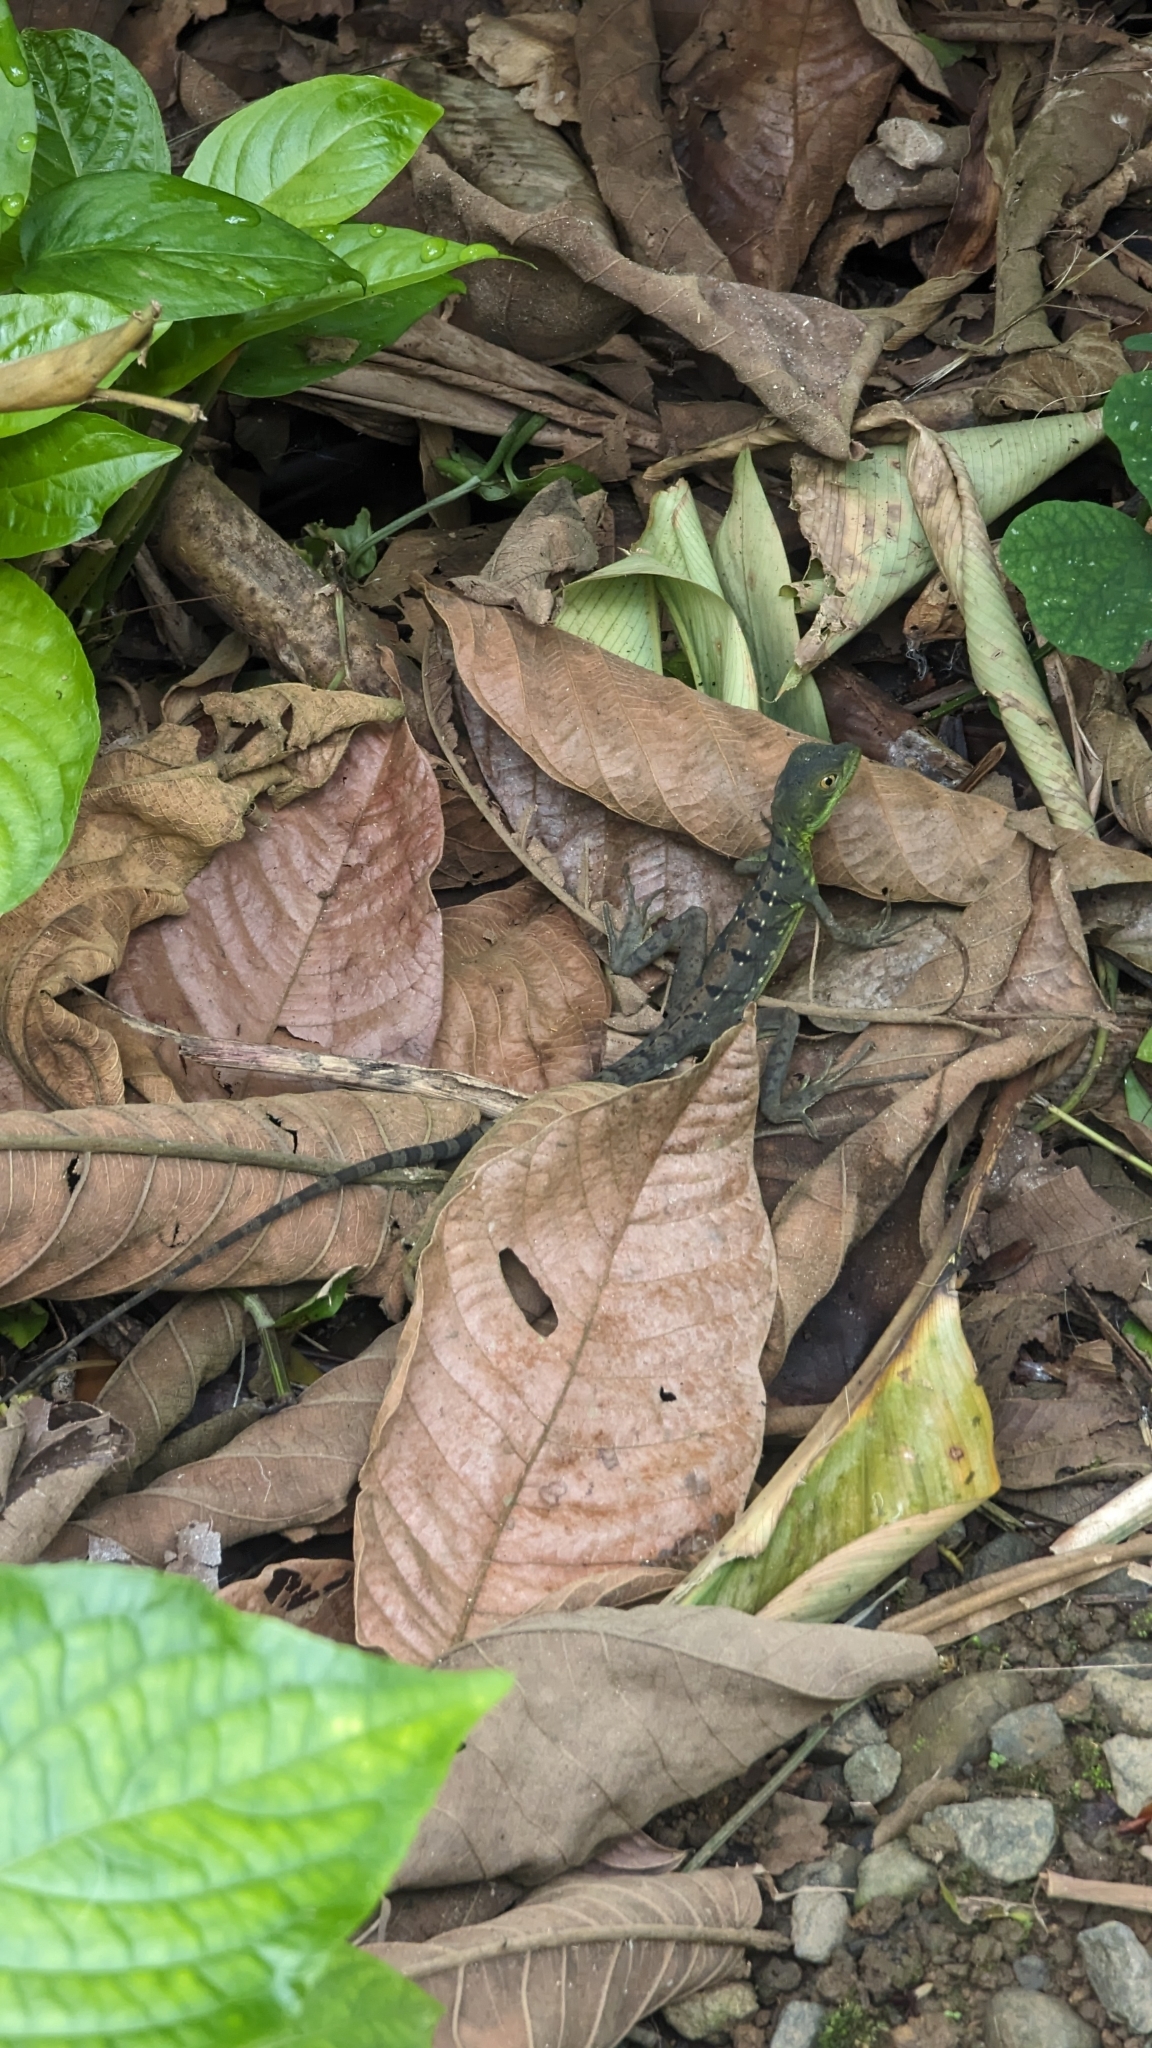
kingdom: Animalia
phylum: Chordata
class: Squamata
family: Corytophanidae
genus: Basiliscus
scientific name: Basiliscus plumifrons
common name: Green basilisk
